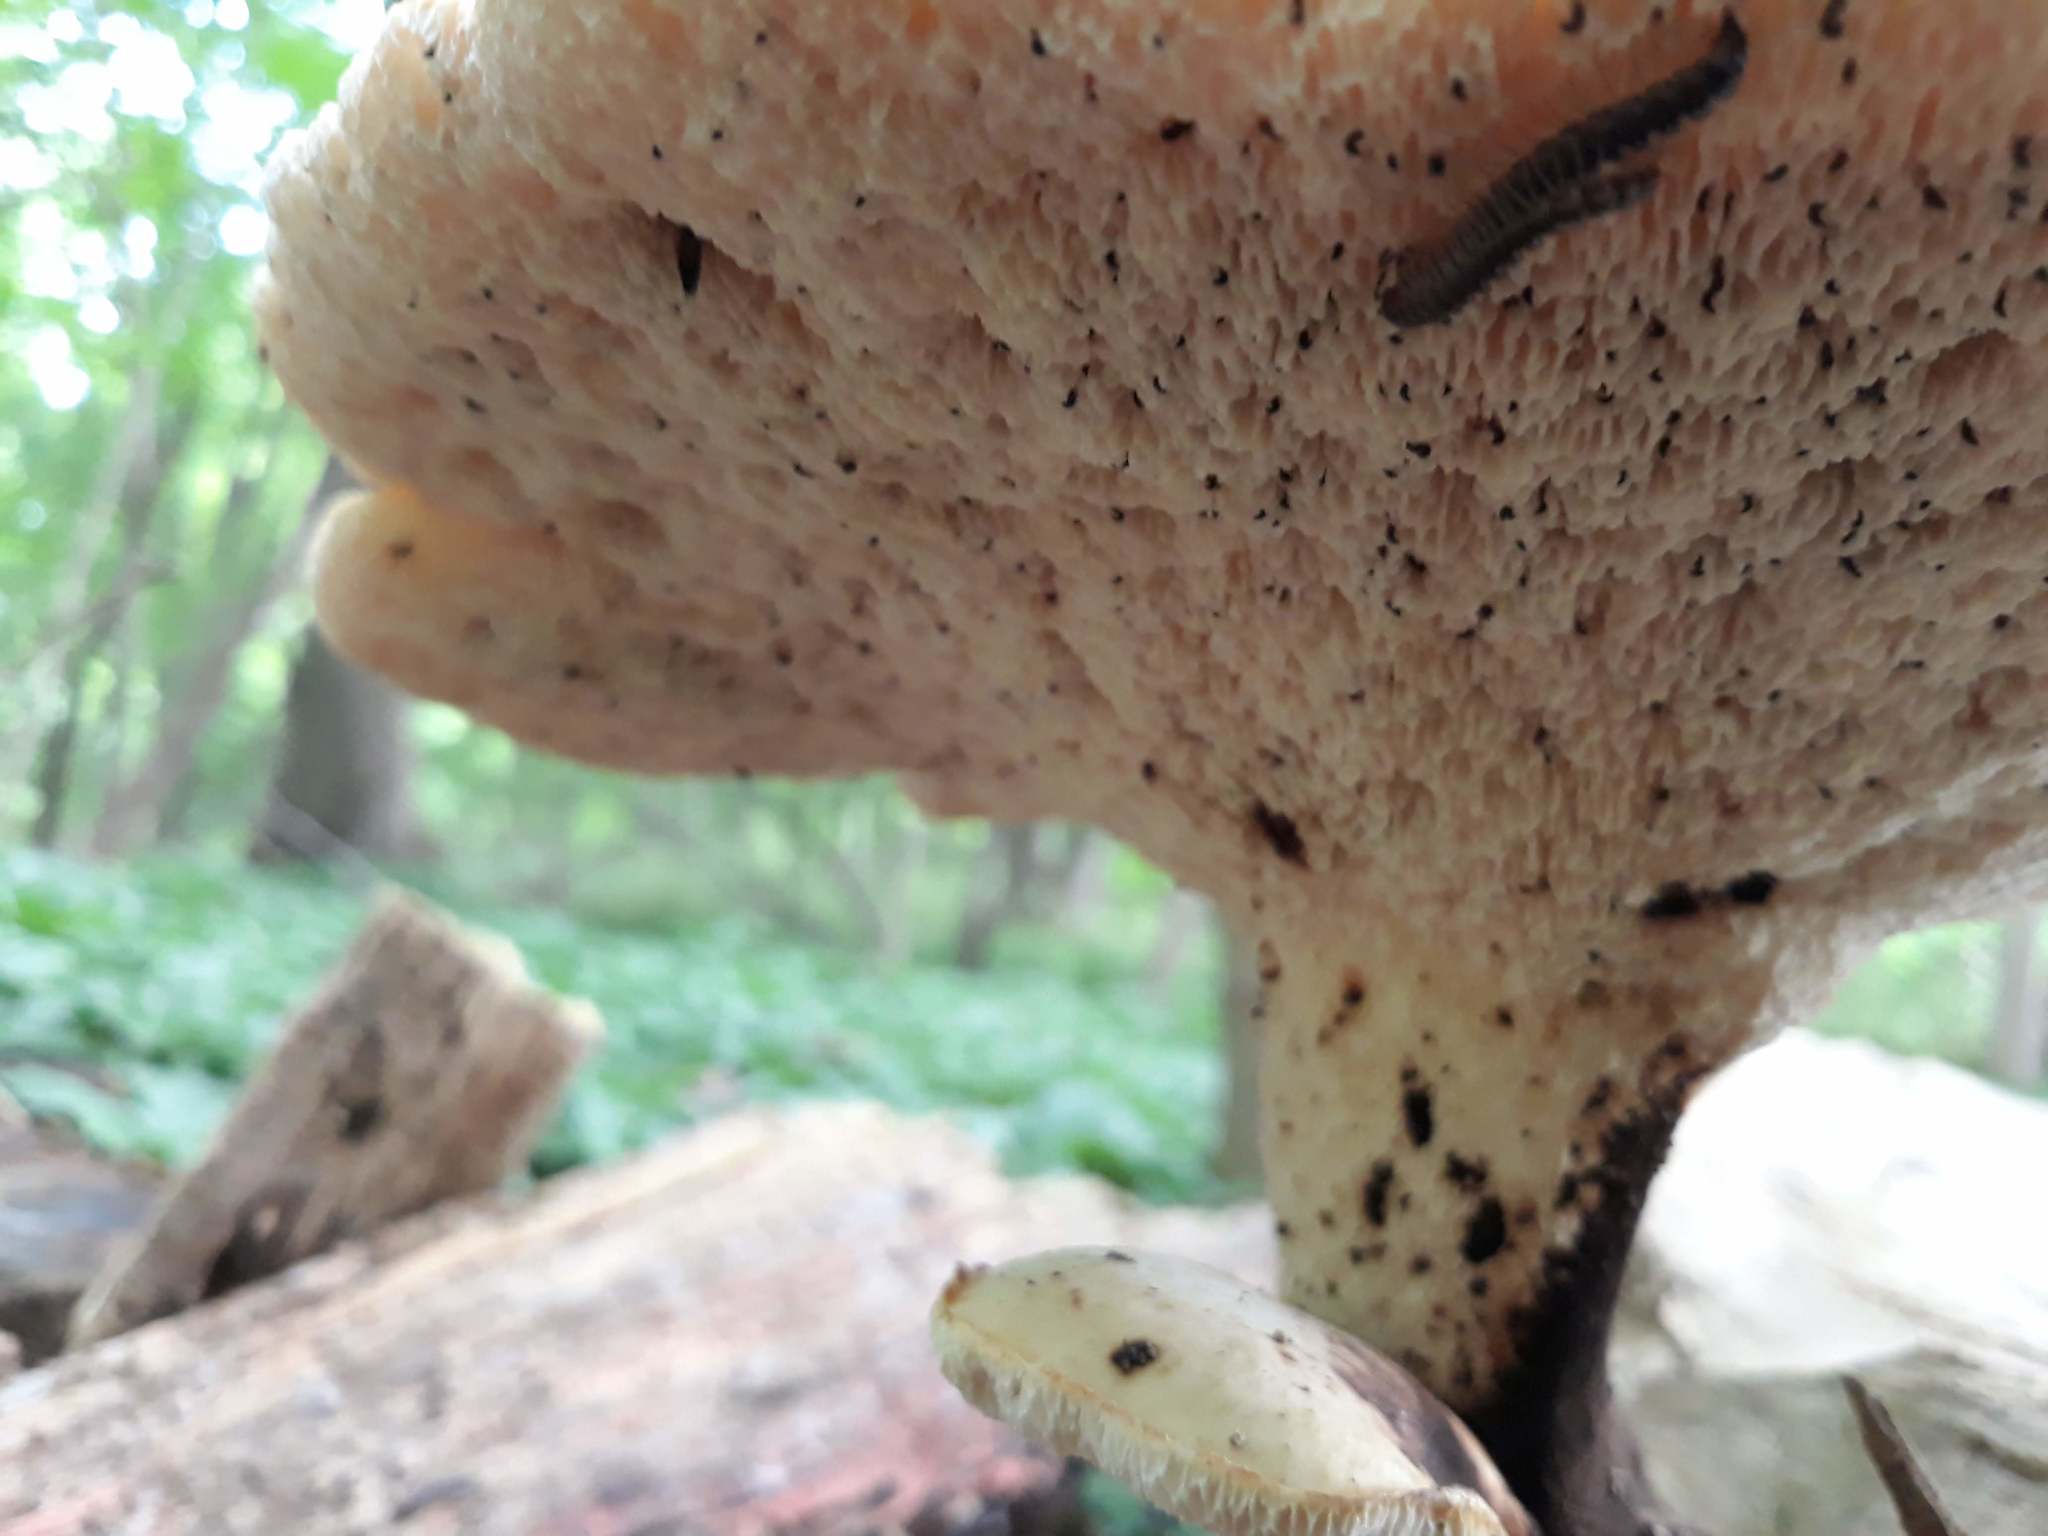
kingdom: Fungi
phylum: Basidiomycota
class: Agaricomycetes
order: Polyporales
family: Polyporaceae
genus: Cerioporus
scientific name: Cerioporus squamosus
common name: Dryad's saddle
